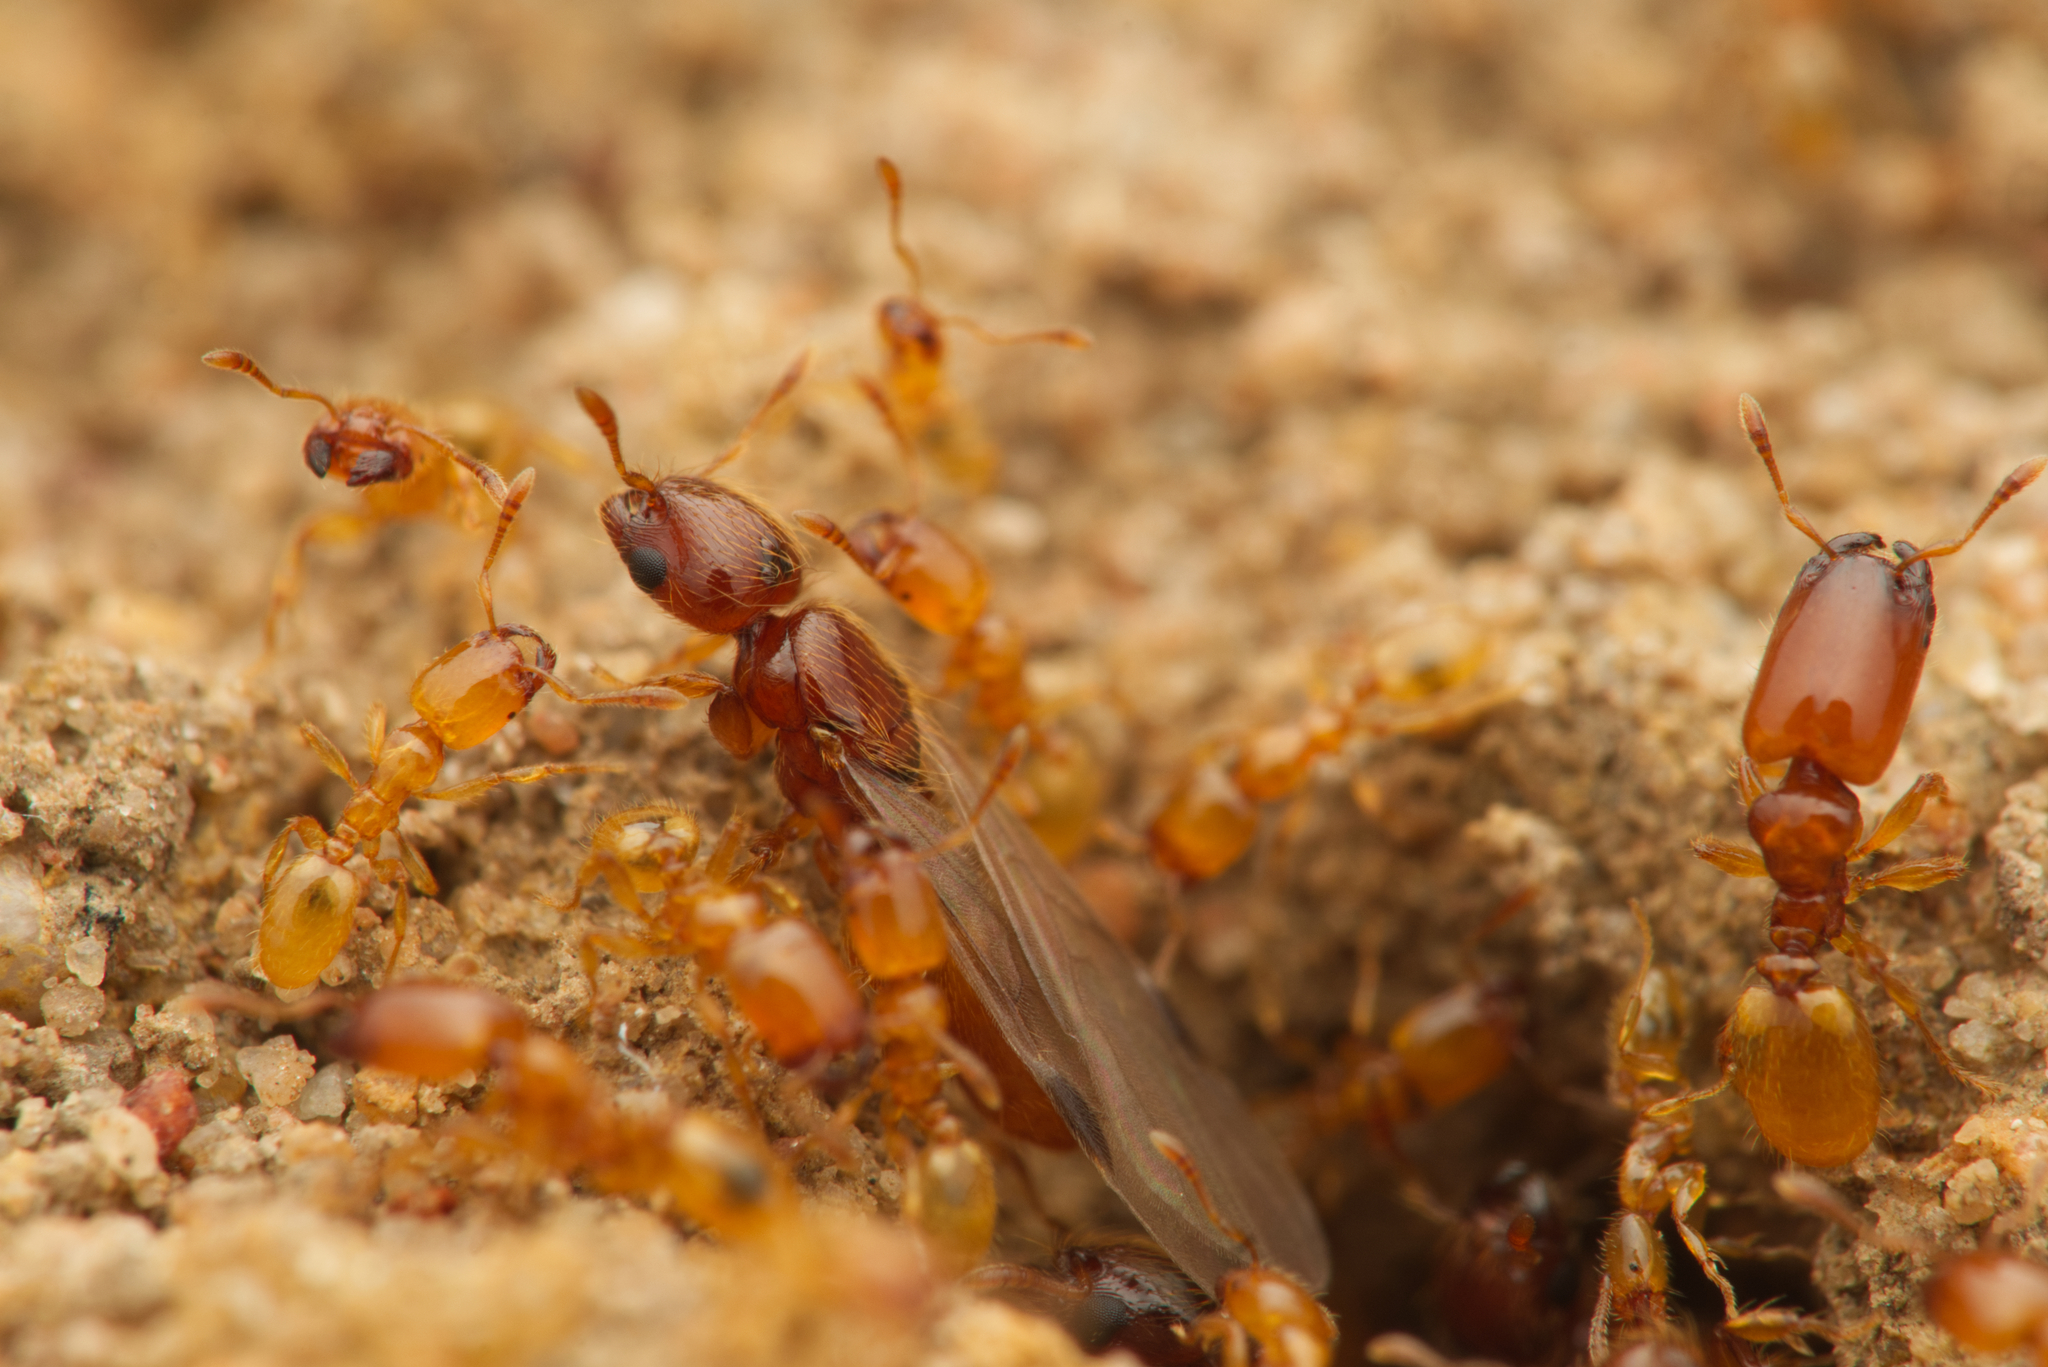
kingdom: Animalia
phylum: Arthropoda
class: Insecta
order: Hymenoptera
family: Formicidae
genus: Pheidole
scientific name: Pheidole
